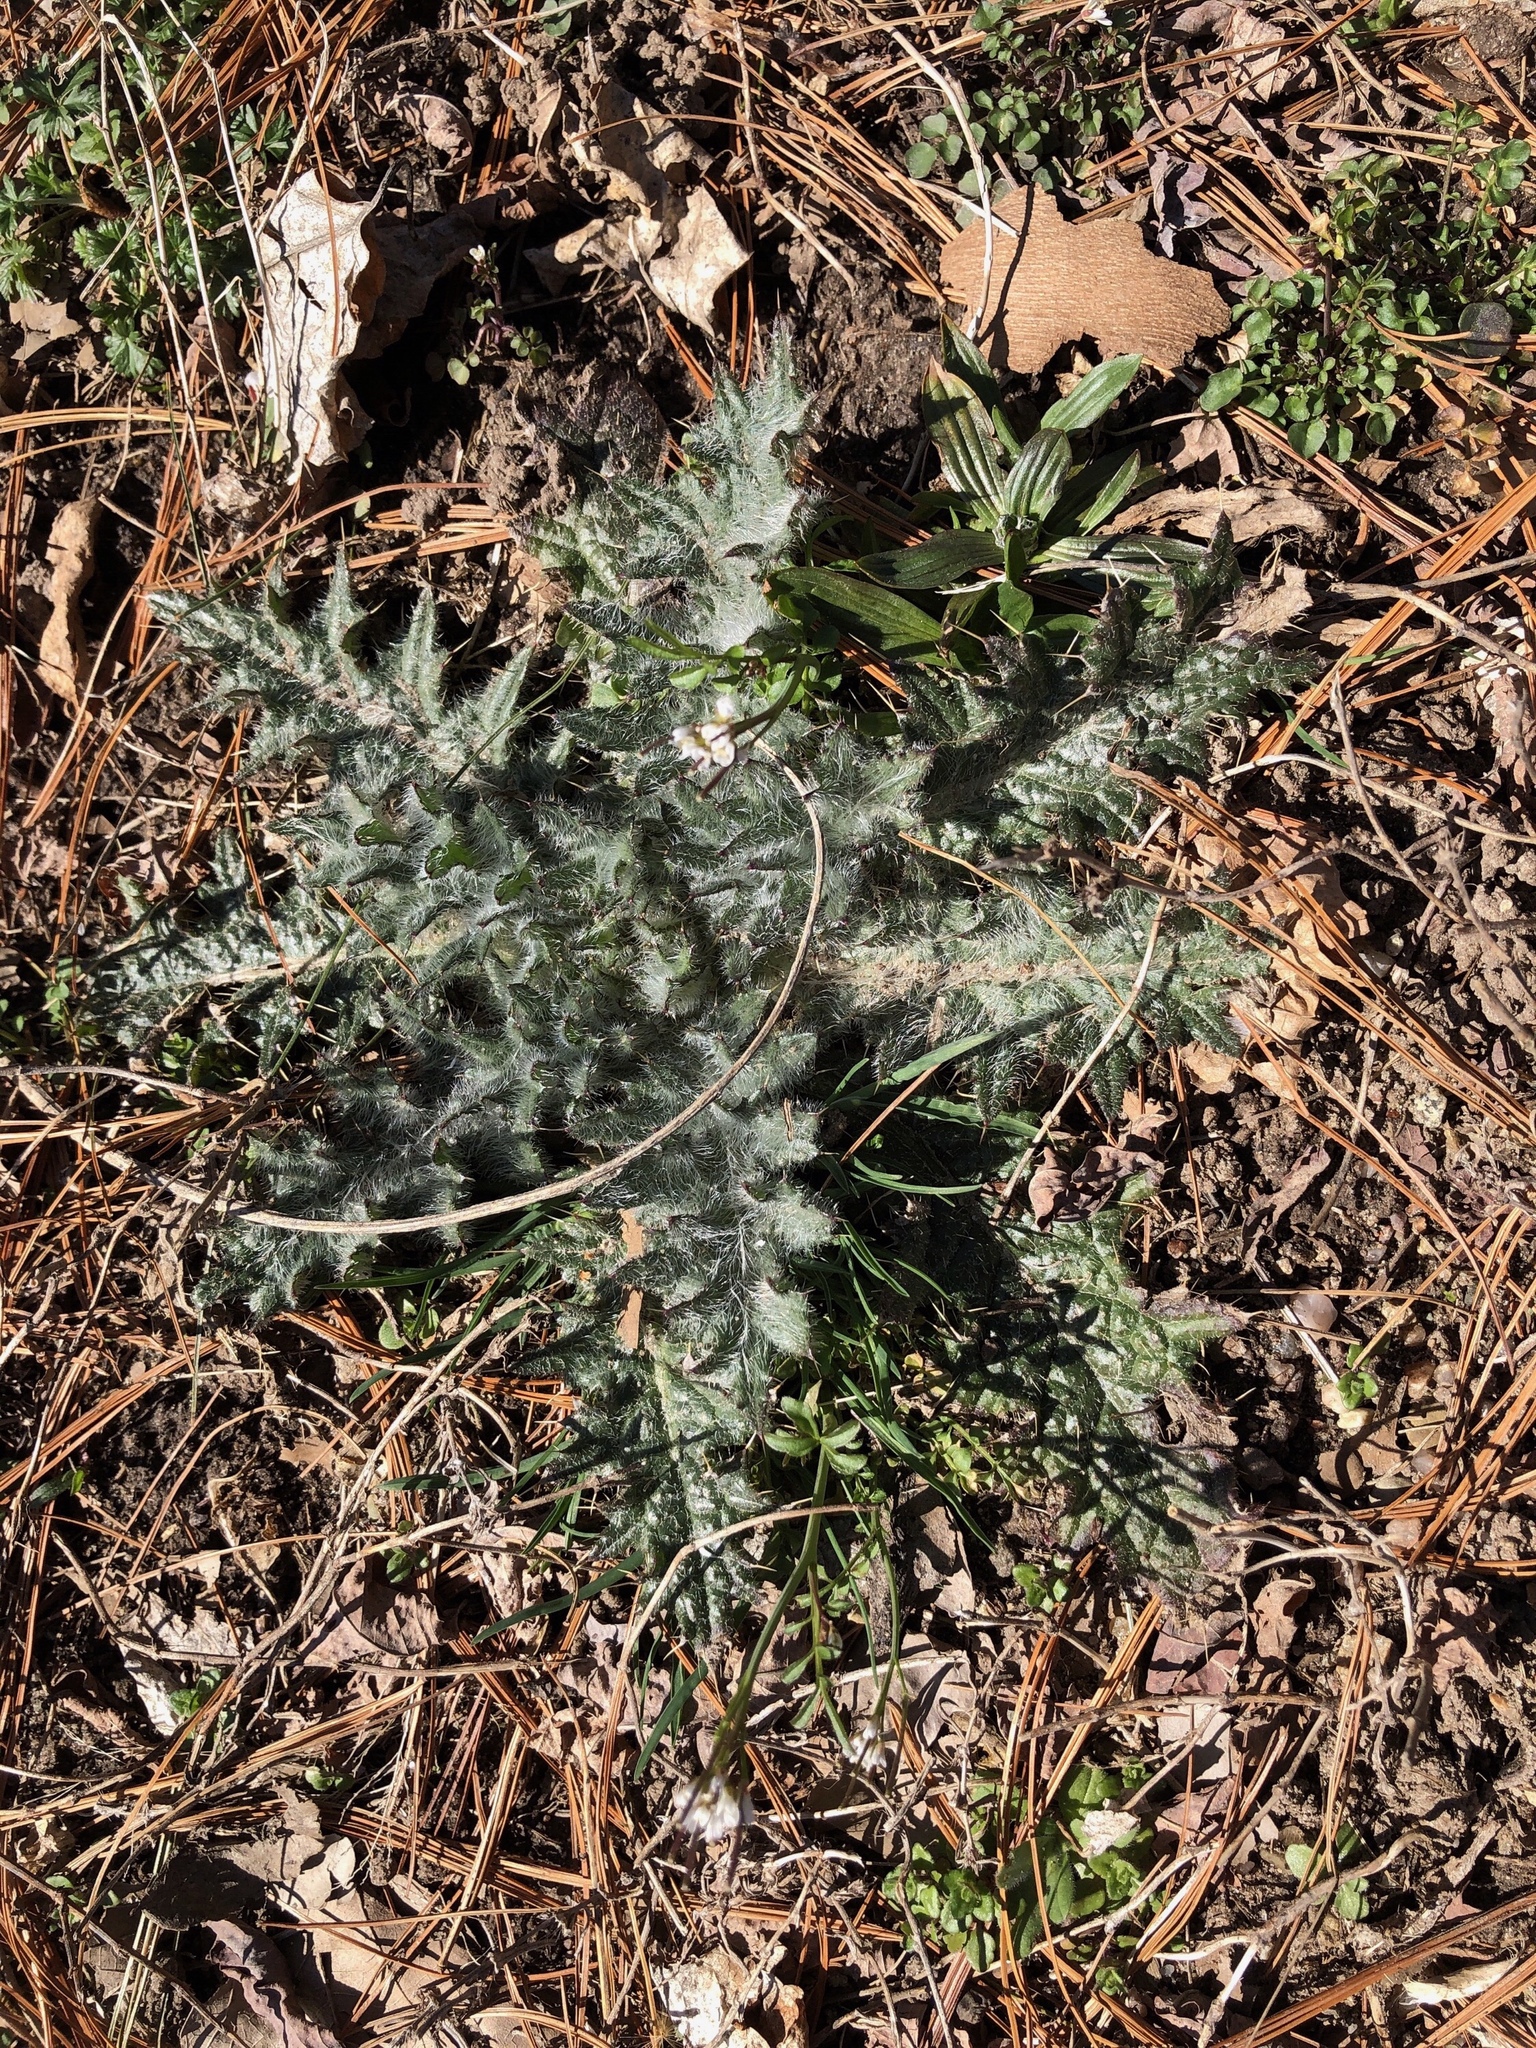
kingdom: Plantae
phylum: Tracheophyta
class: Magnoliopsida
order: Asterales
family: Asteraceae
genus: Cirsium
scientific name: Cirsium vulgare
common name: Bull thistle
